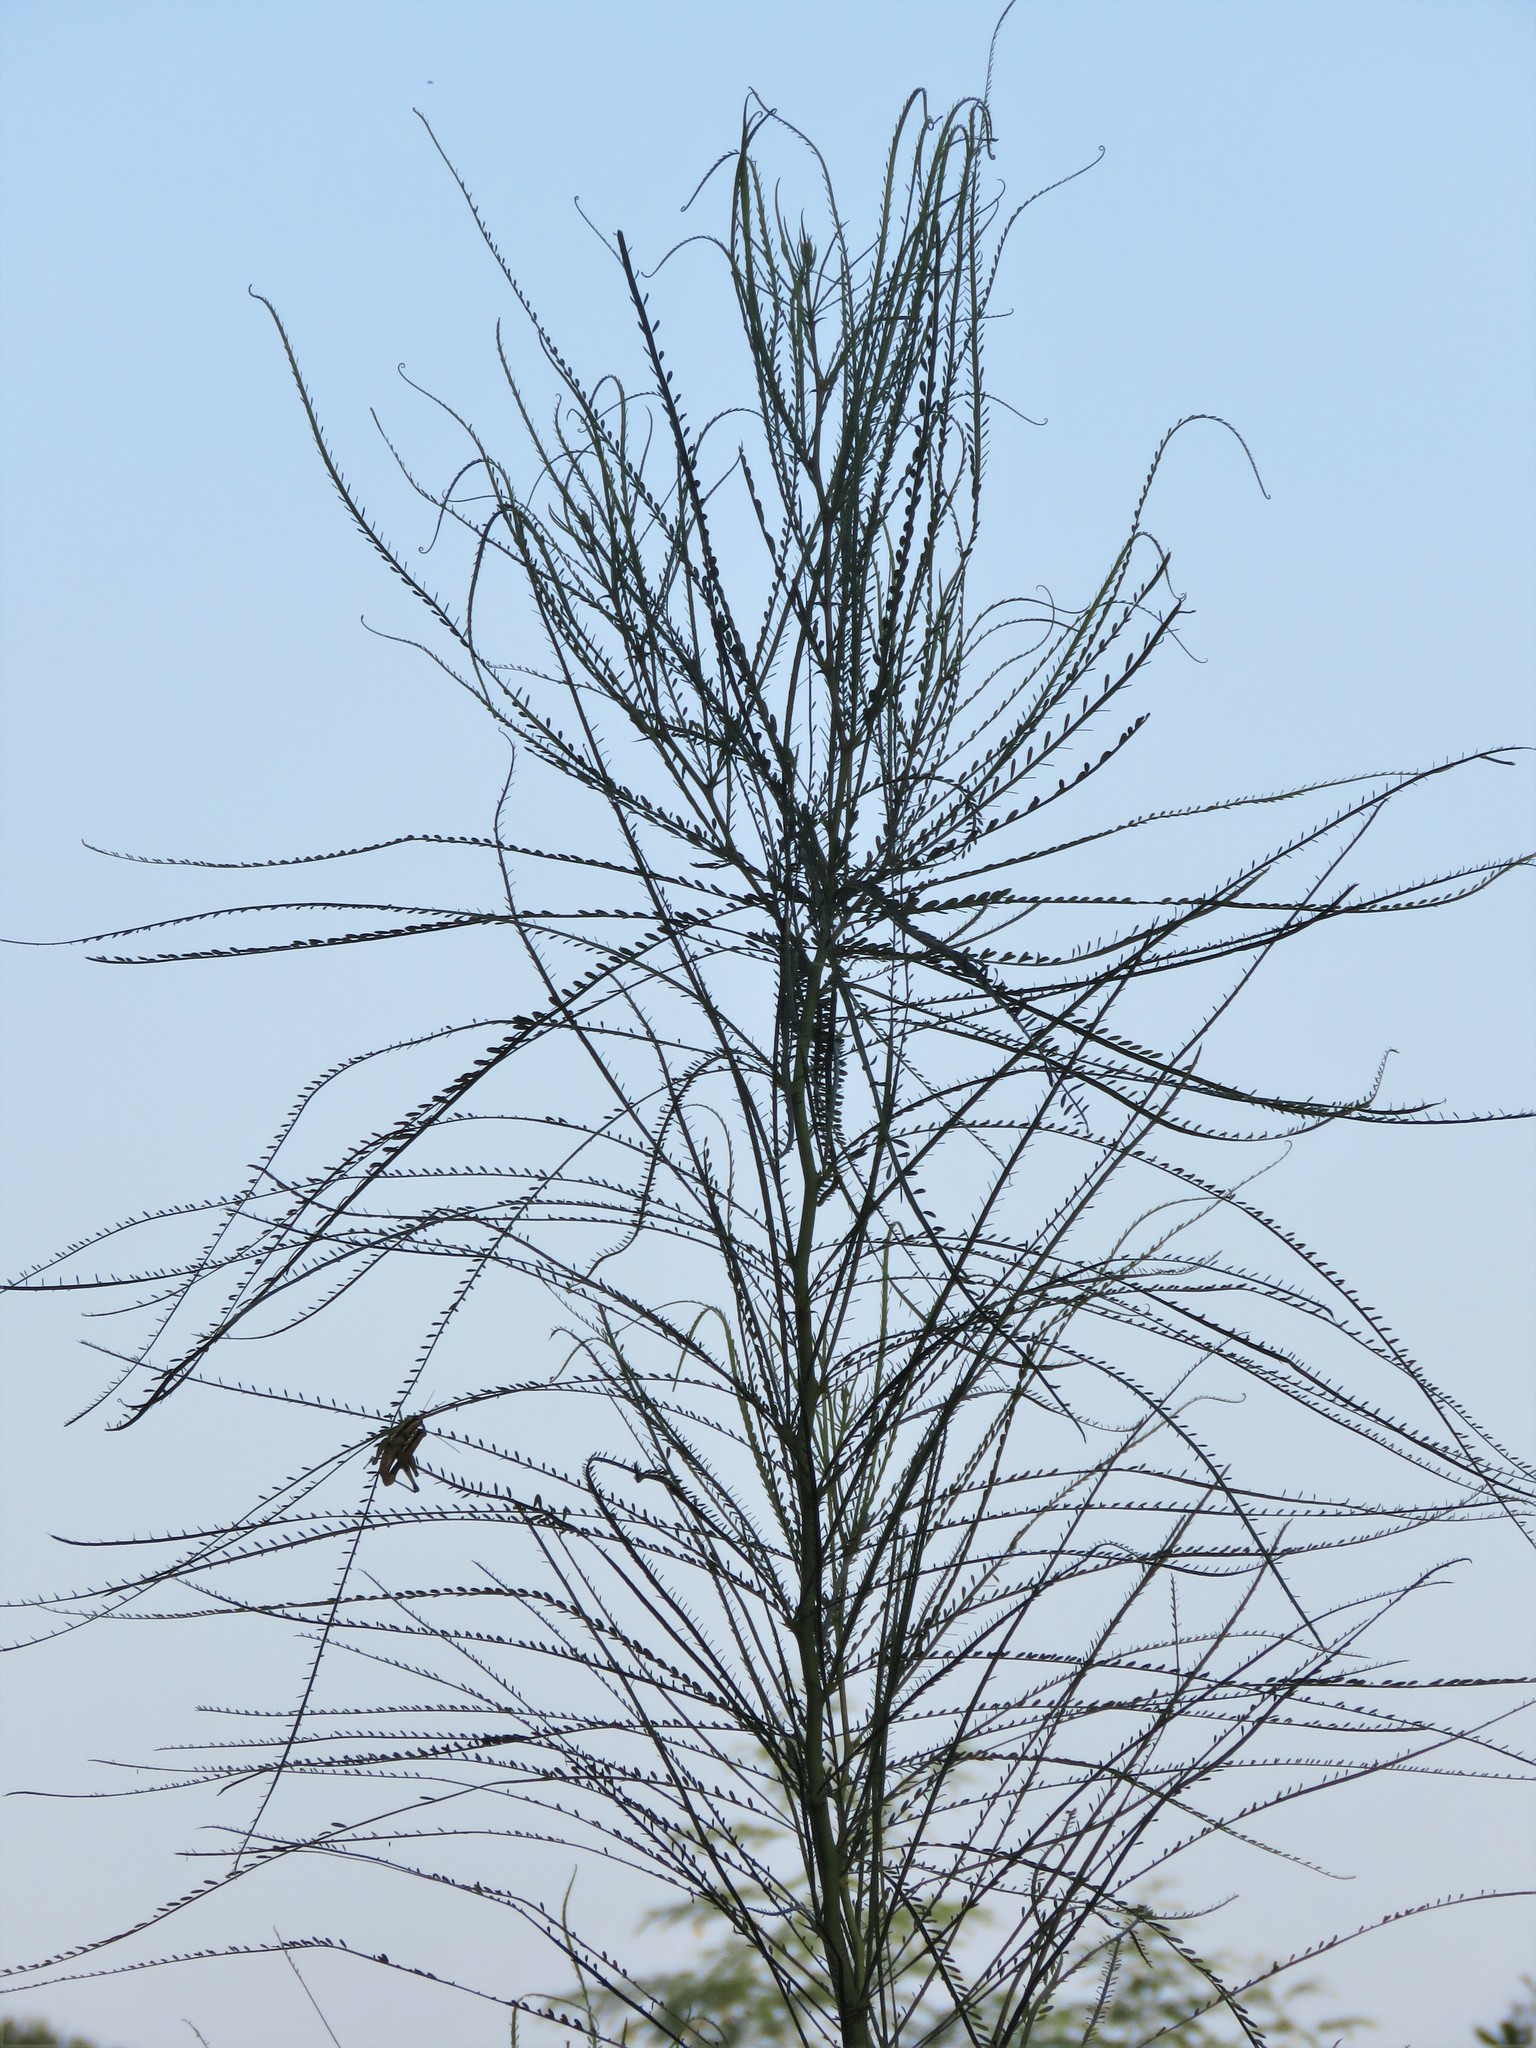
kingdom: Plantae
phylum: Tracheophyta
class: Magnoliopsida
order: Fabales
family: Fabaceae
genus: Parkinsonia
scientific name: Parkinsonia aculeata
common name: Jerusalem thorn
